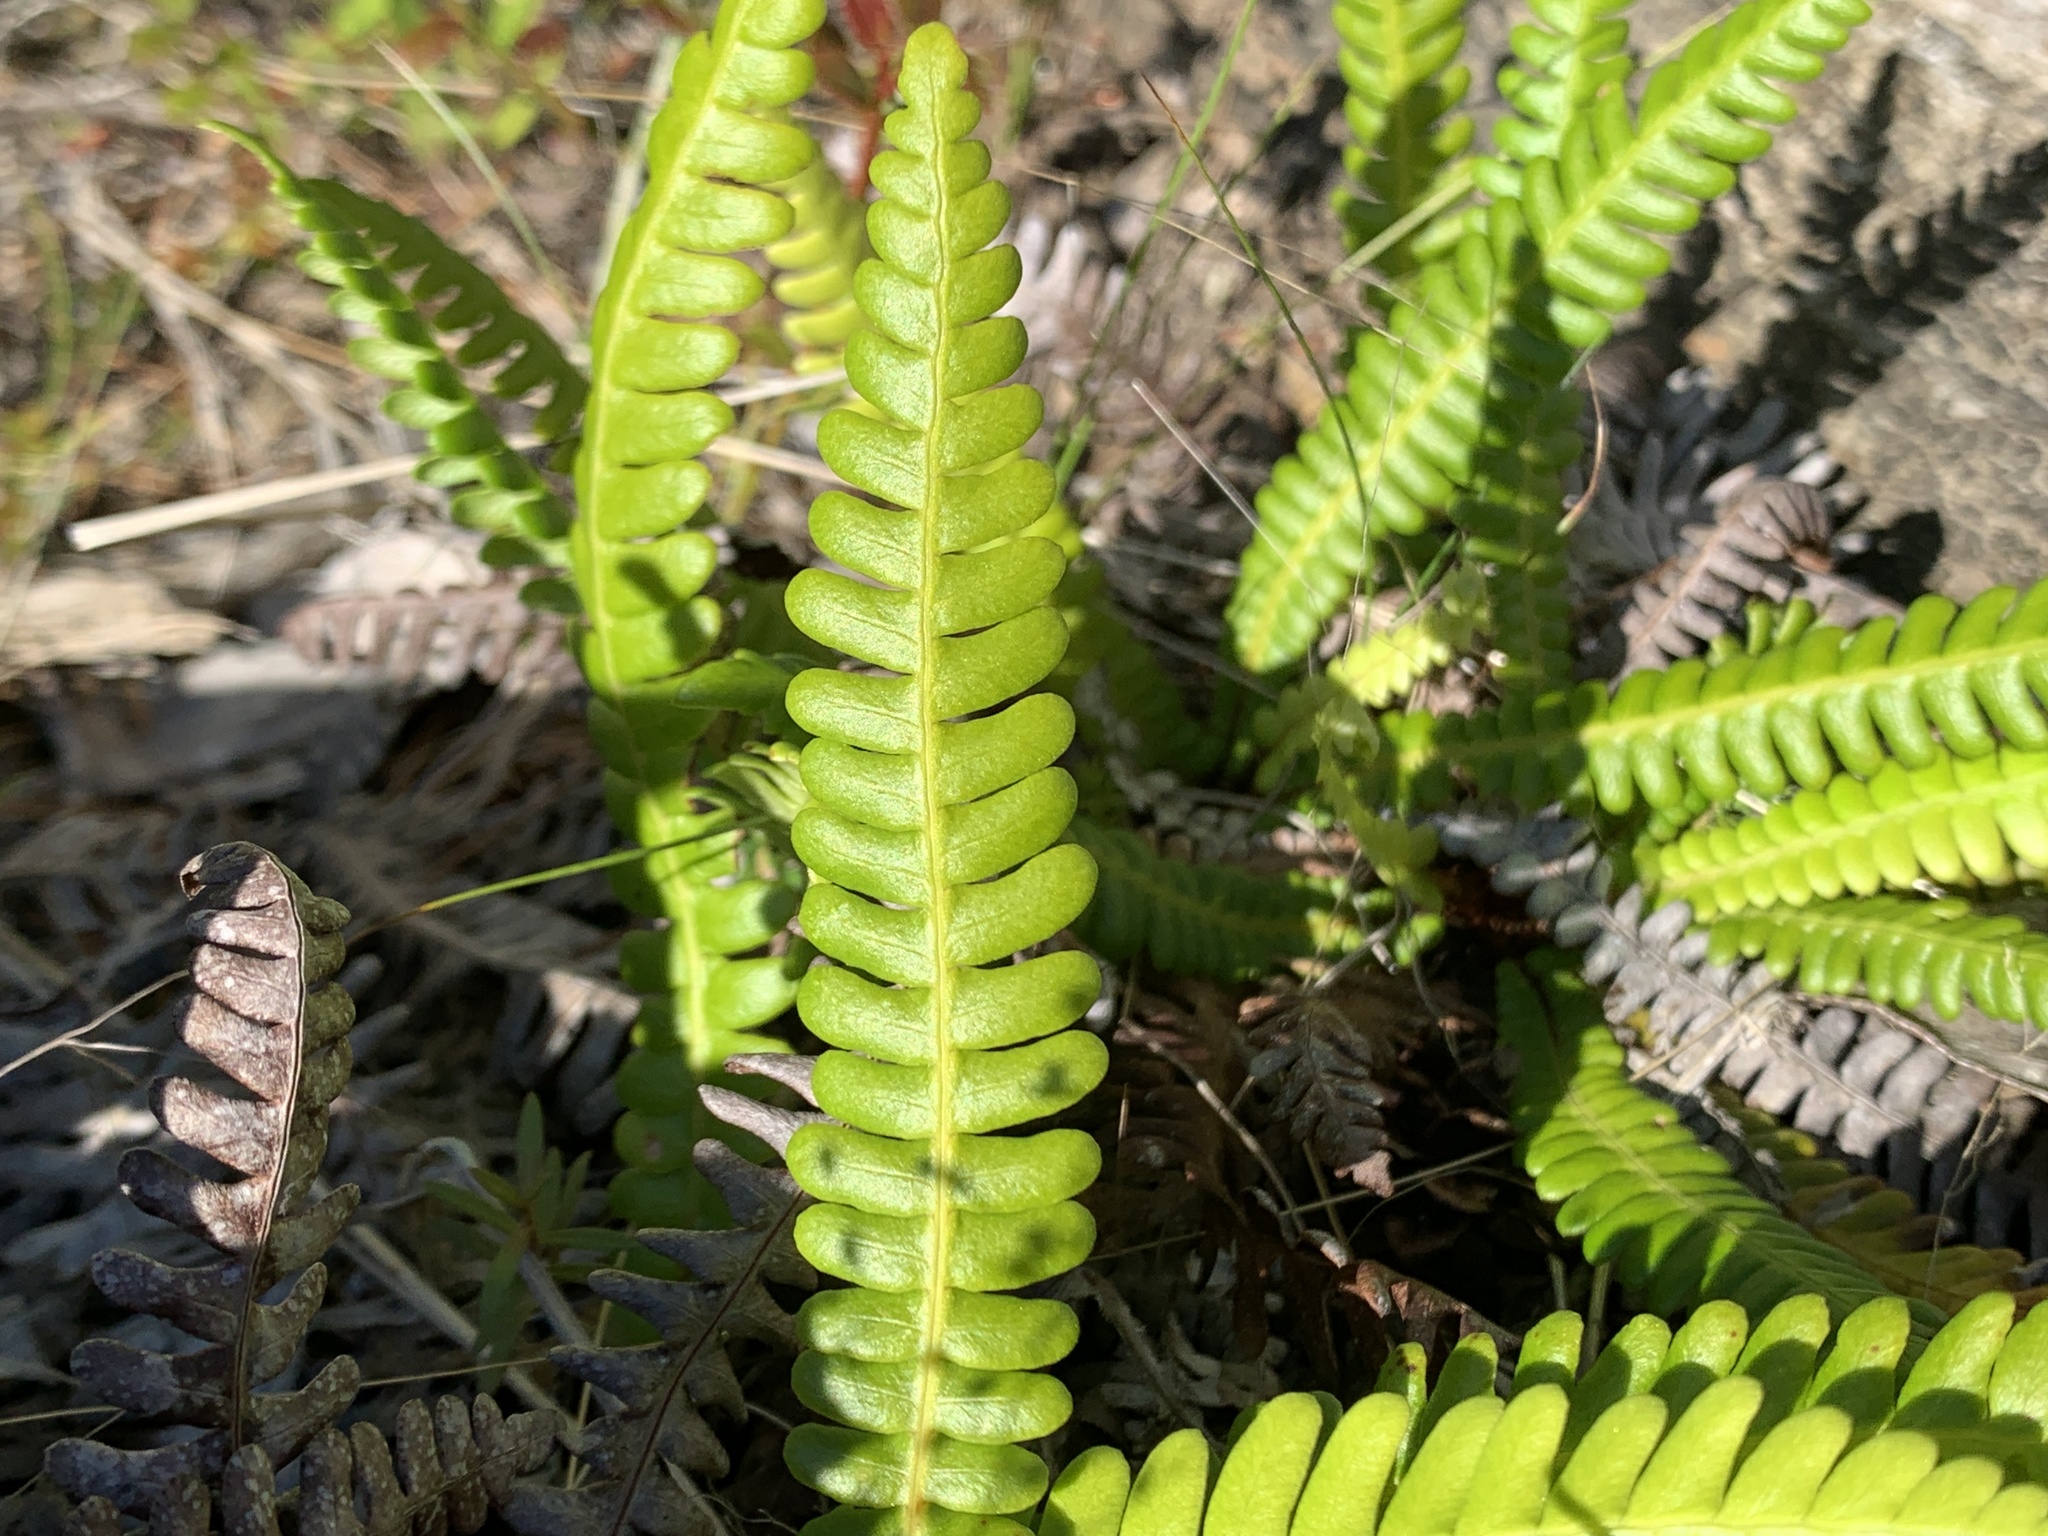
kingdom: Plantae
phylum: Tracheophyta
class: Polypodiopsida
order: Polypodiales
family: Blechnaceae
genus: Struthiopteris
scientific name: Struthiopteris spicant
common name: Deer fern
